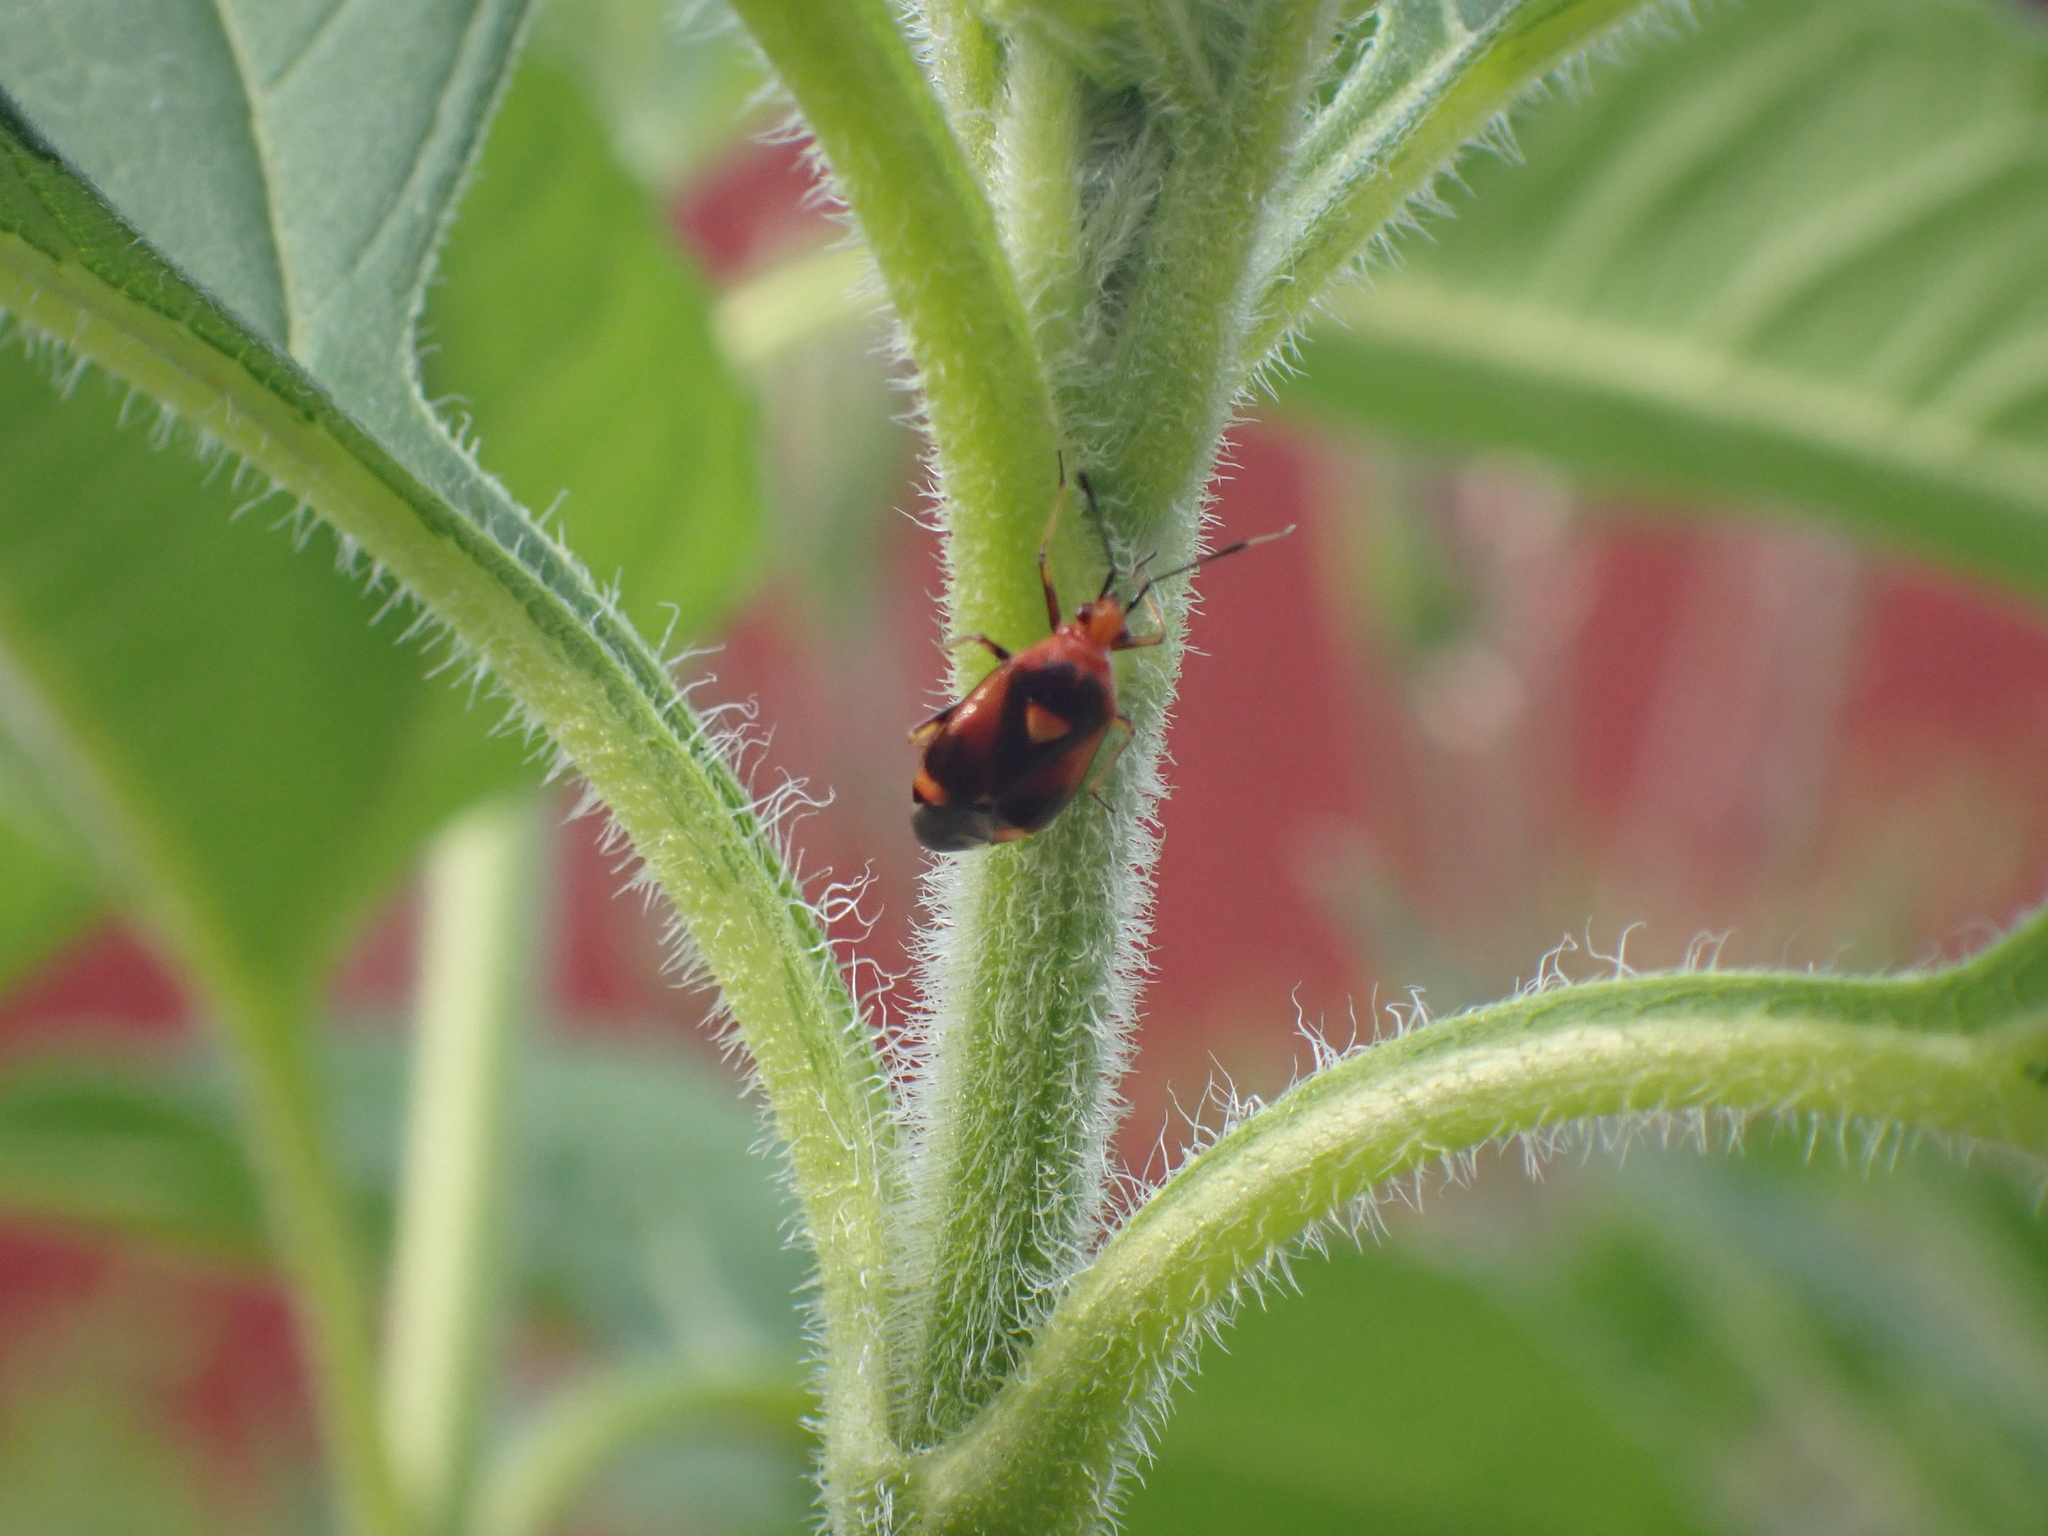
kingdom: Animalia
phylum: Arthropoda
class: Insecta
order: Hemiptera
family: Miridae
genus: Deraeocoris
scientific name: Deraeocoris ruber
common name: Plant bug
